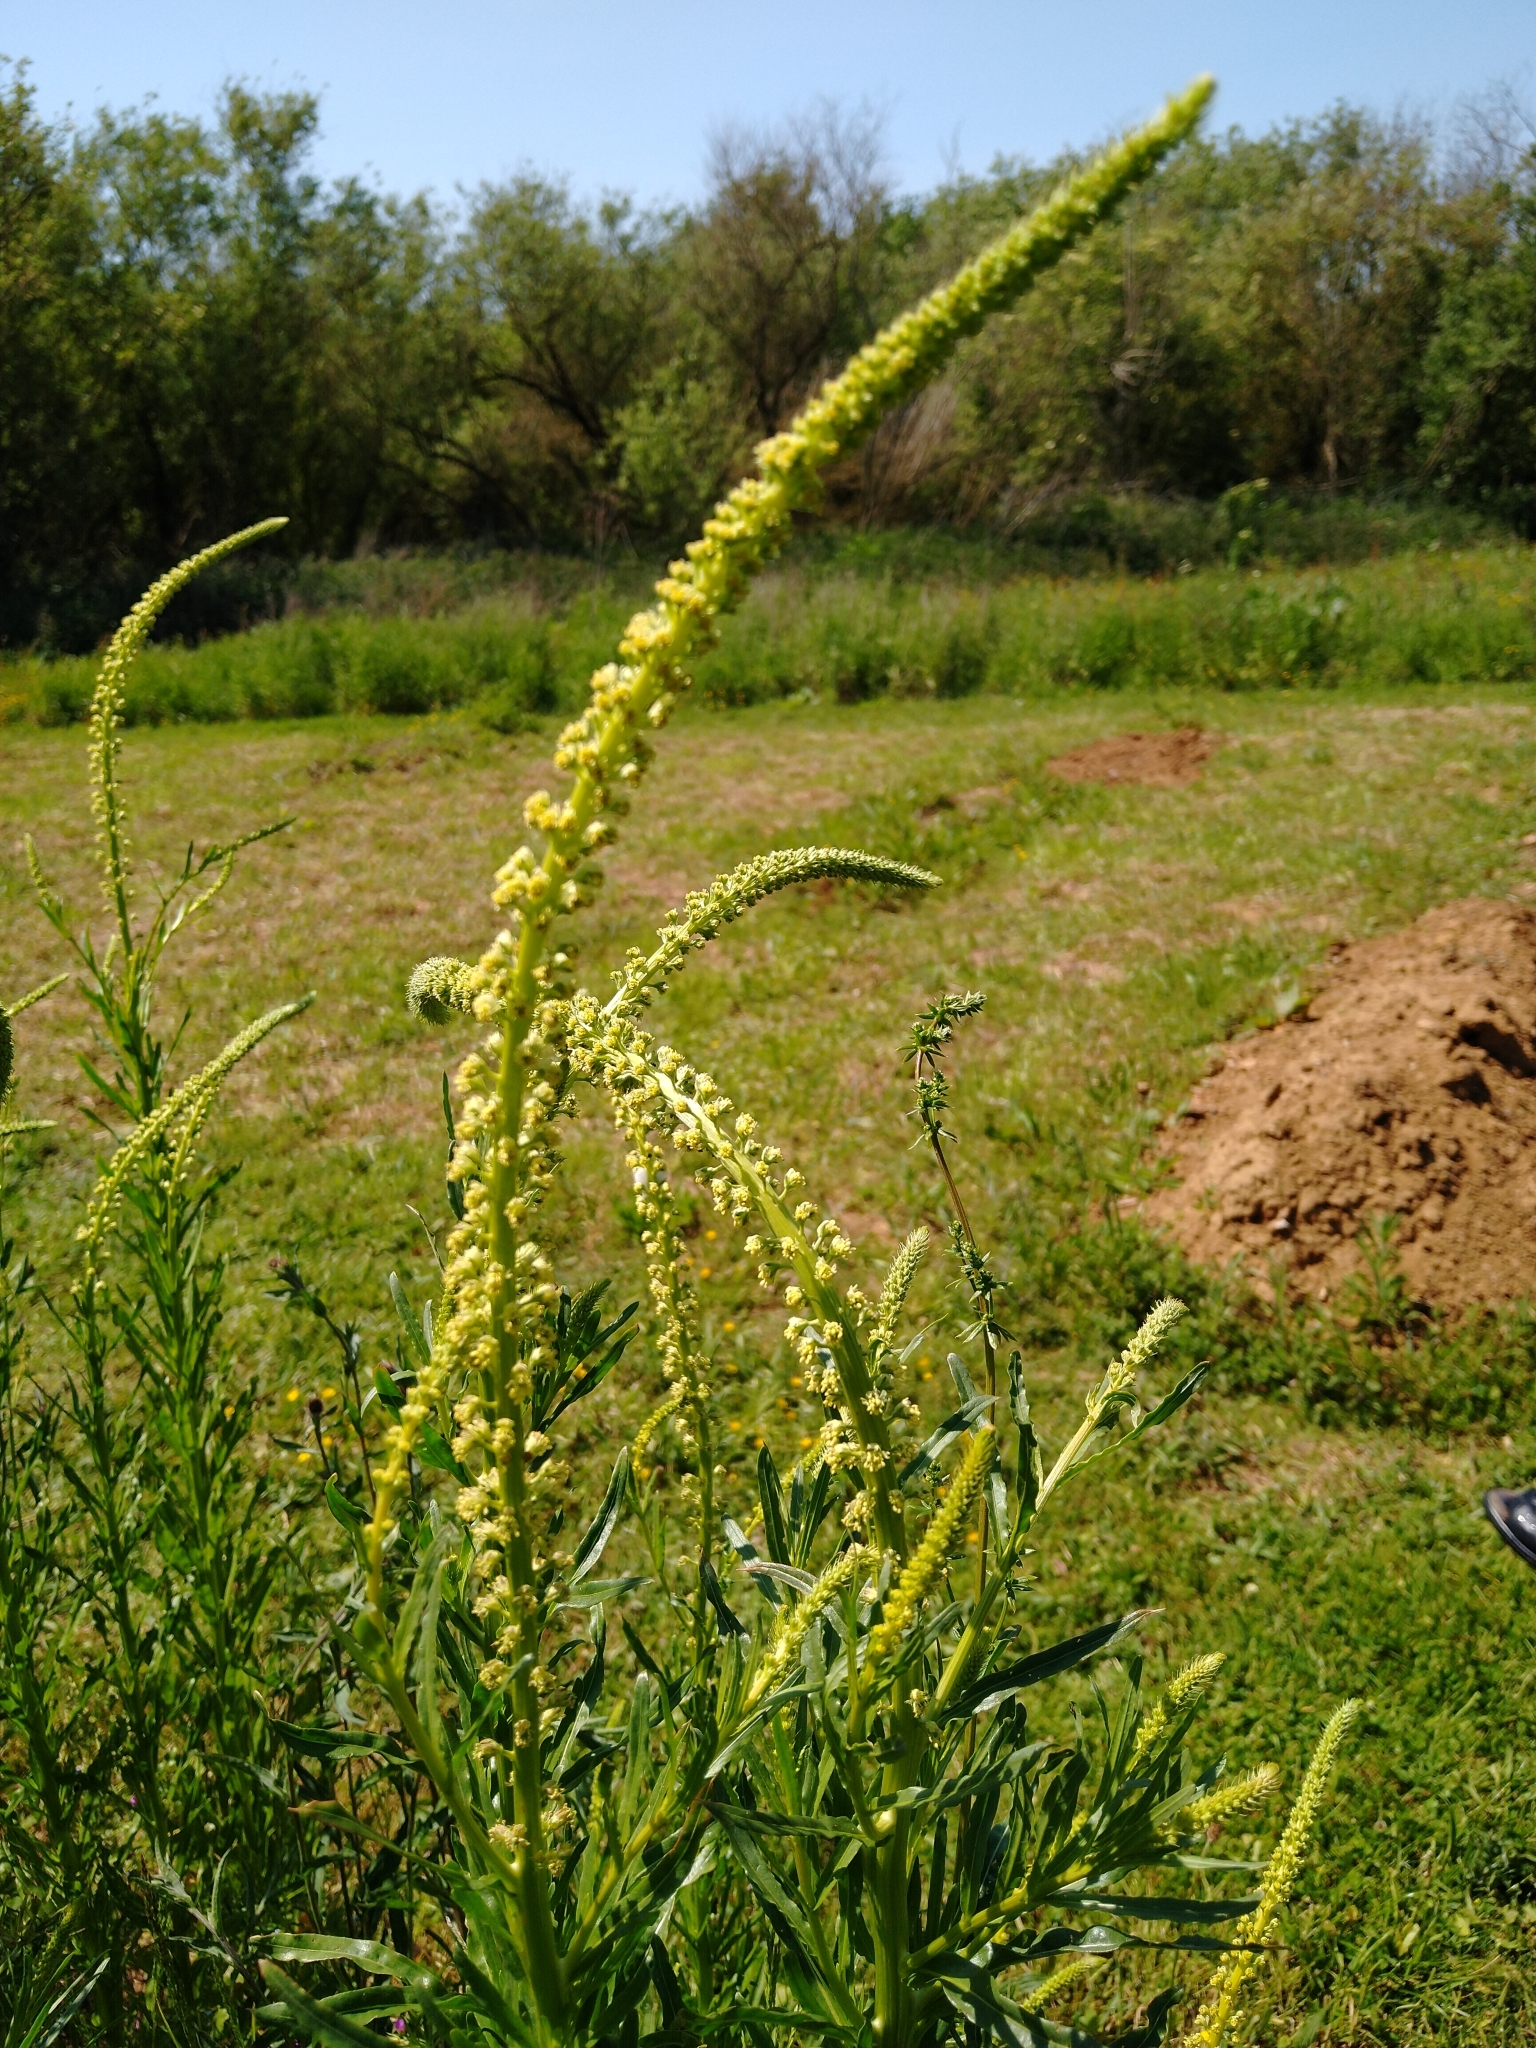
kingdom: Plantae
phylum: Tracheophyta
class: Magnoliopsida
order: Brassicales
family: Resedaceae
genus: Reseda
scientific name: Reseda luteola
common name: Weld
